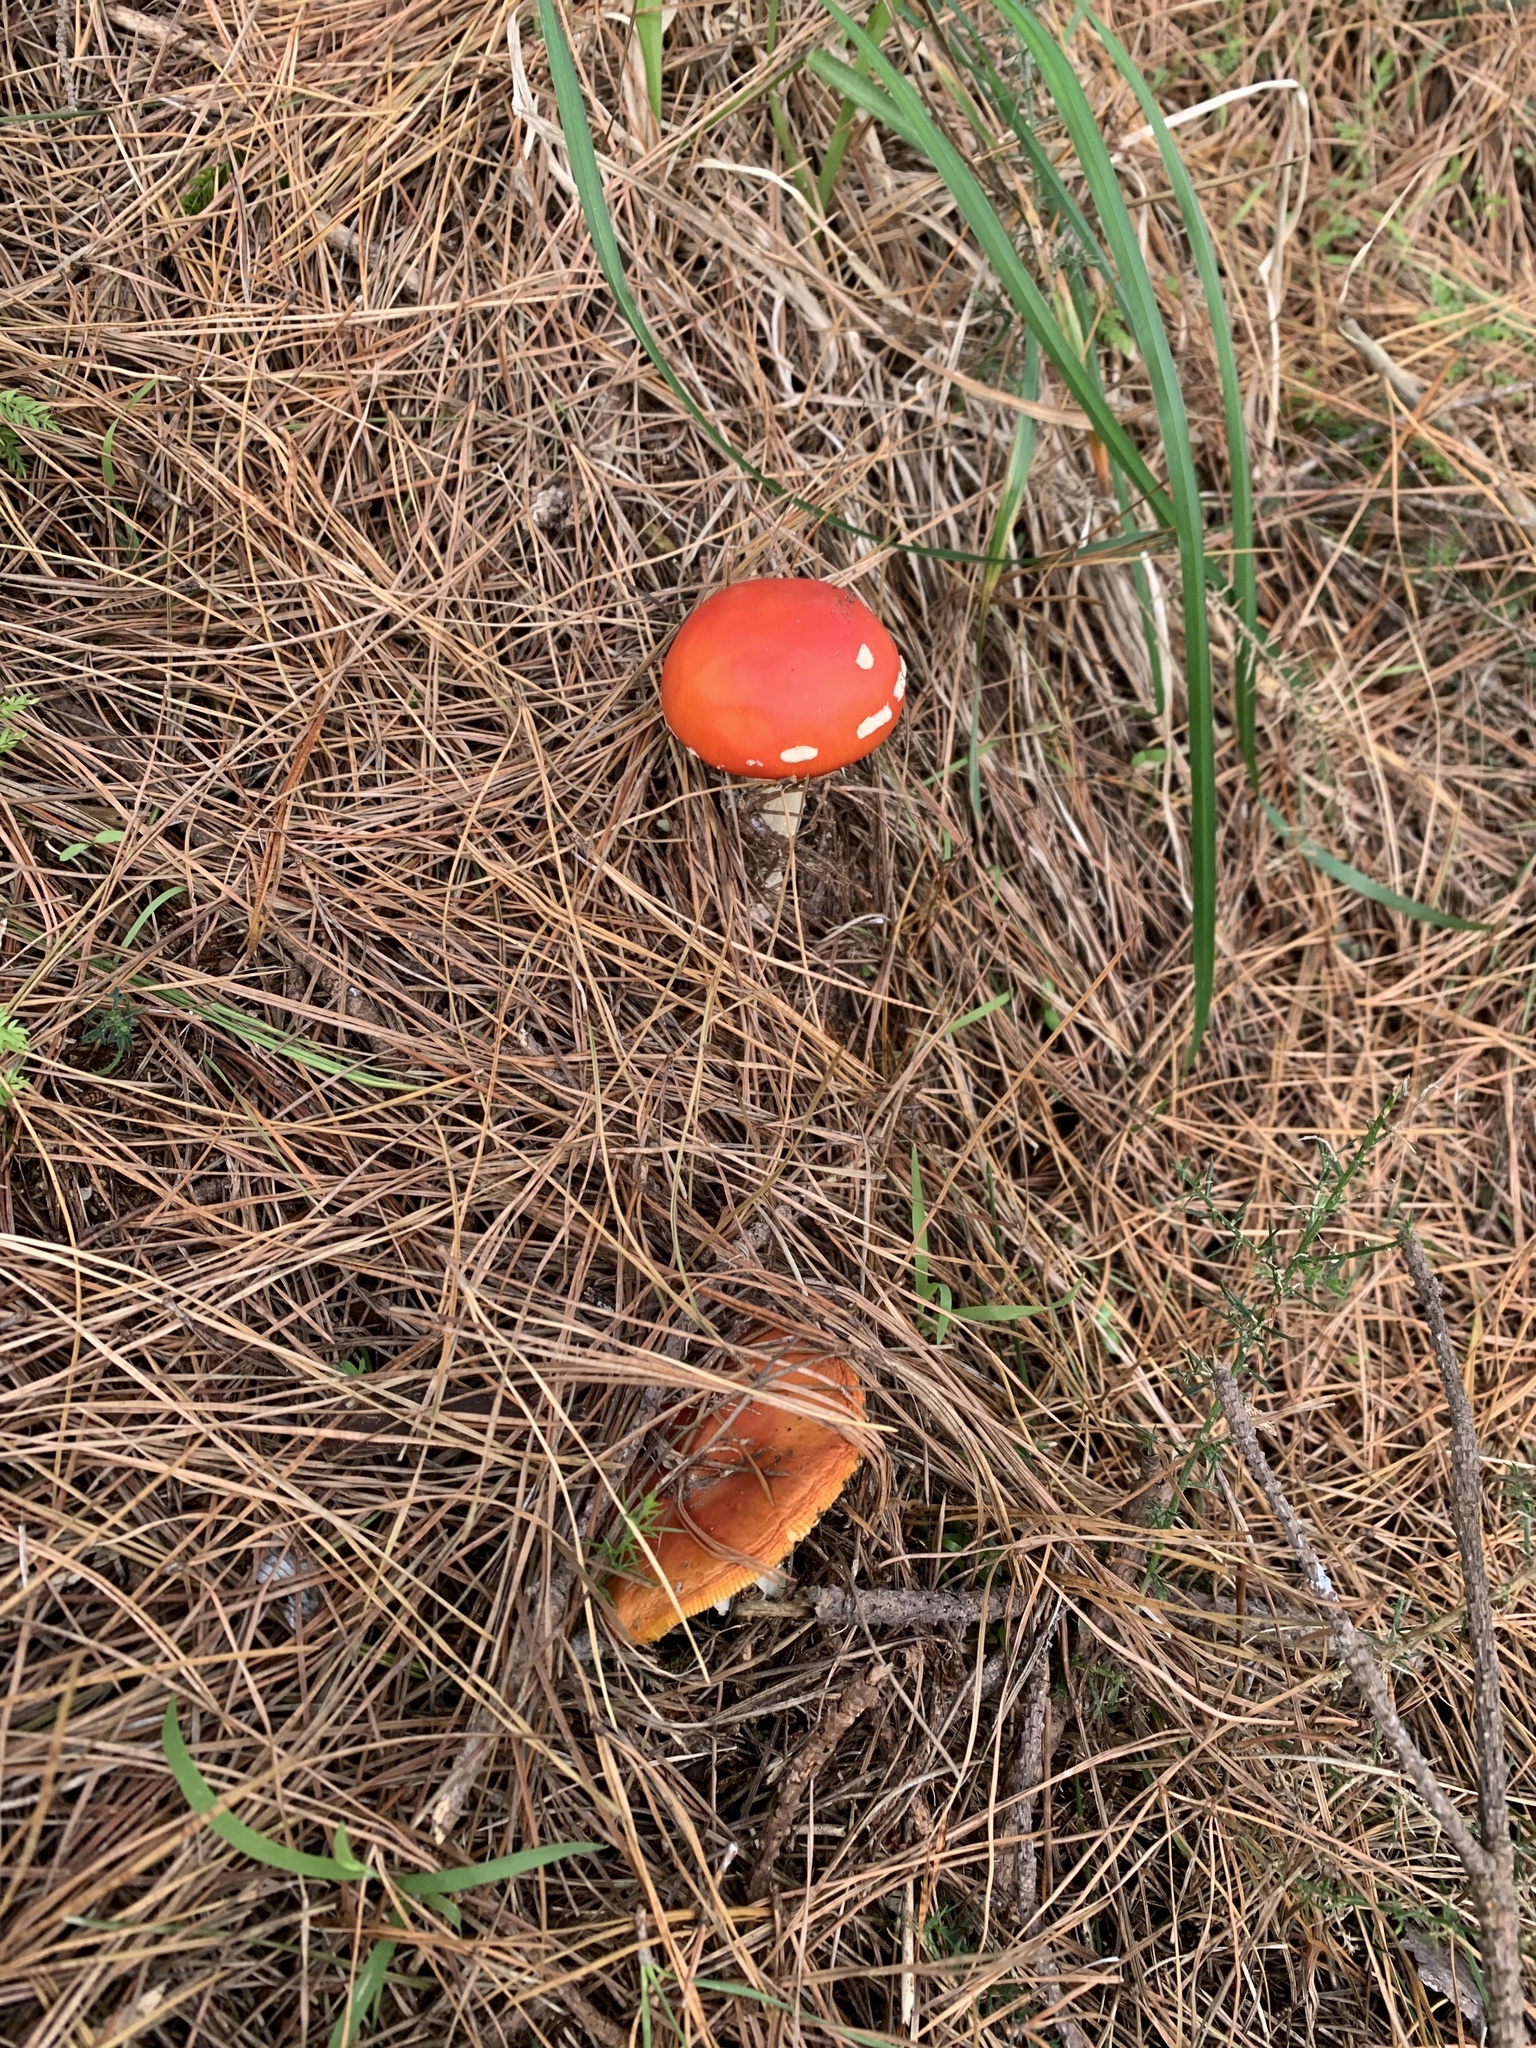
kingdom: Fungi
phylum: Basidiomycota
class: Agaricomycetes
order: Agaricales
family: Amanitaceae
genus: Amanita
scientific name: Amanita muscaria
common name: Fly agaric
